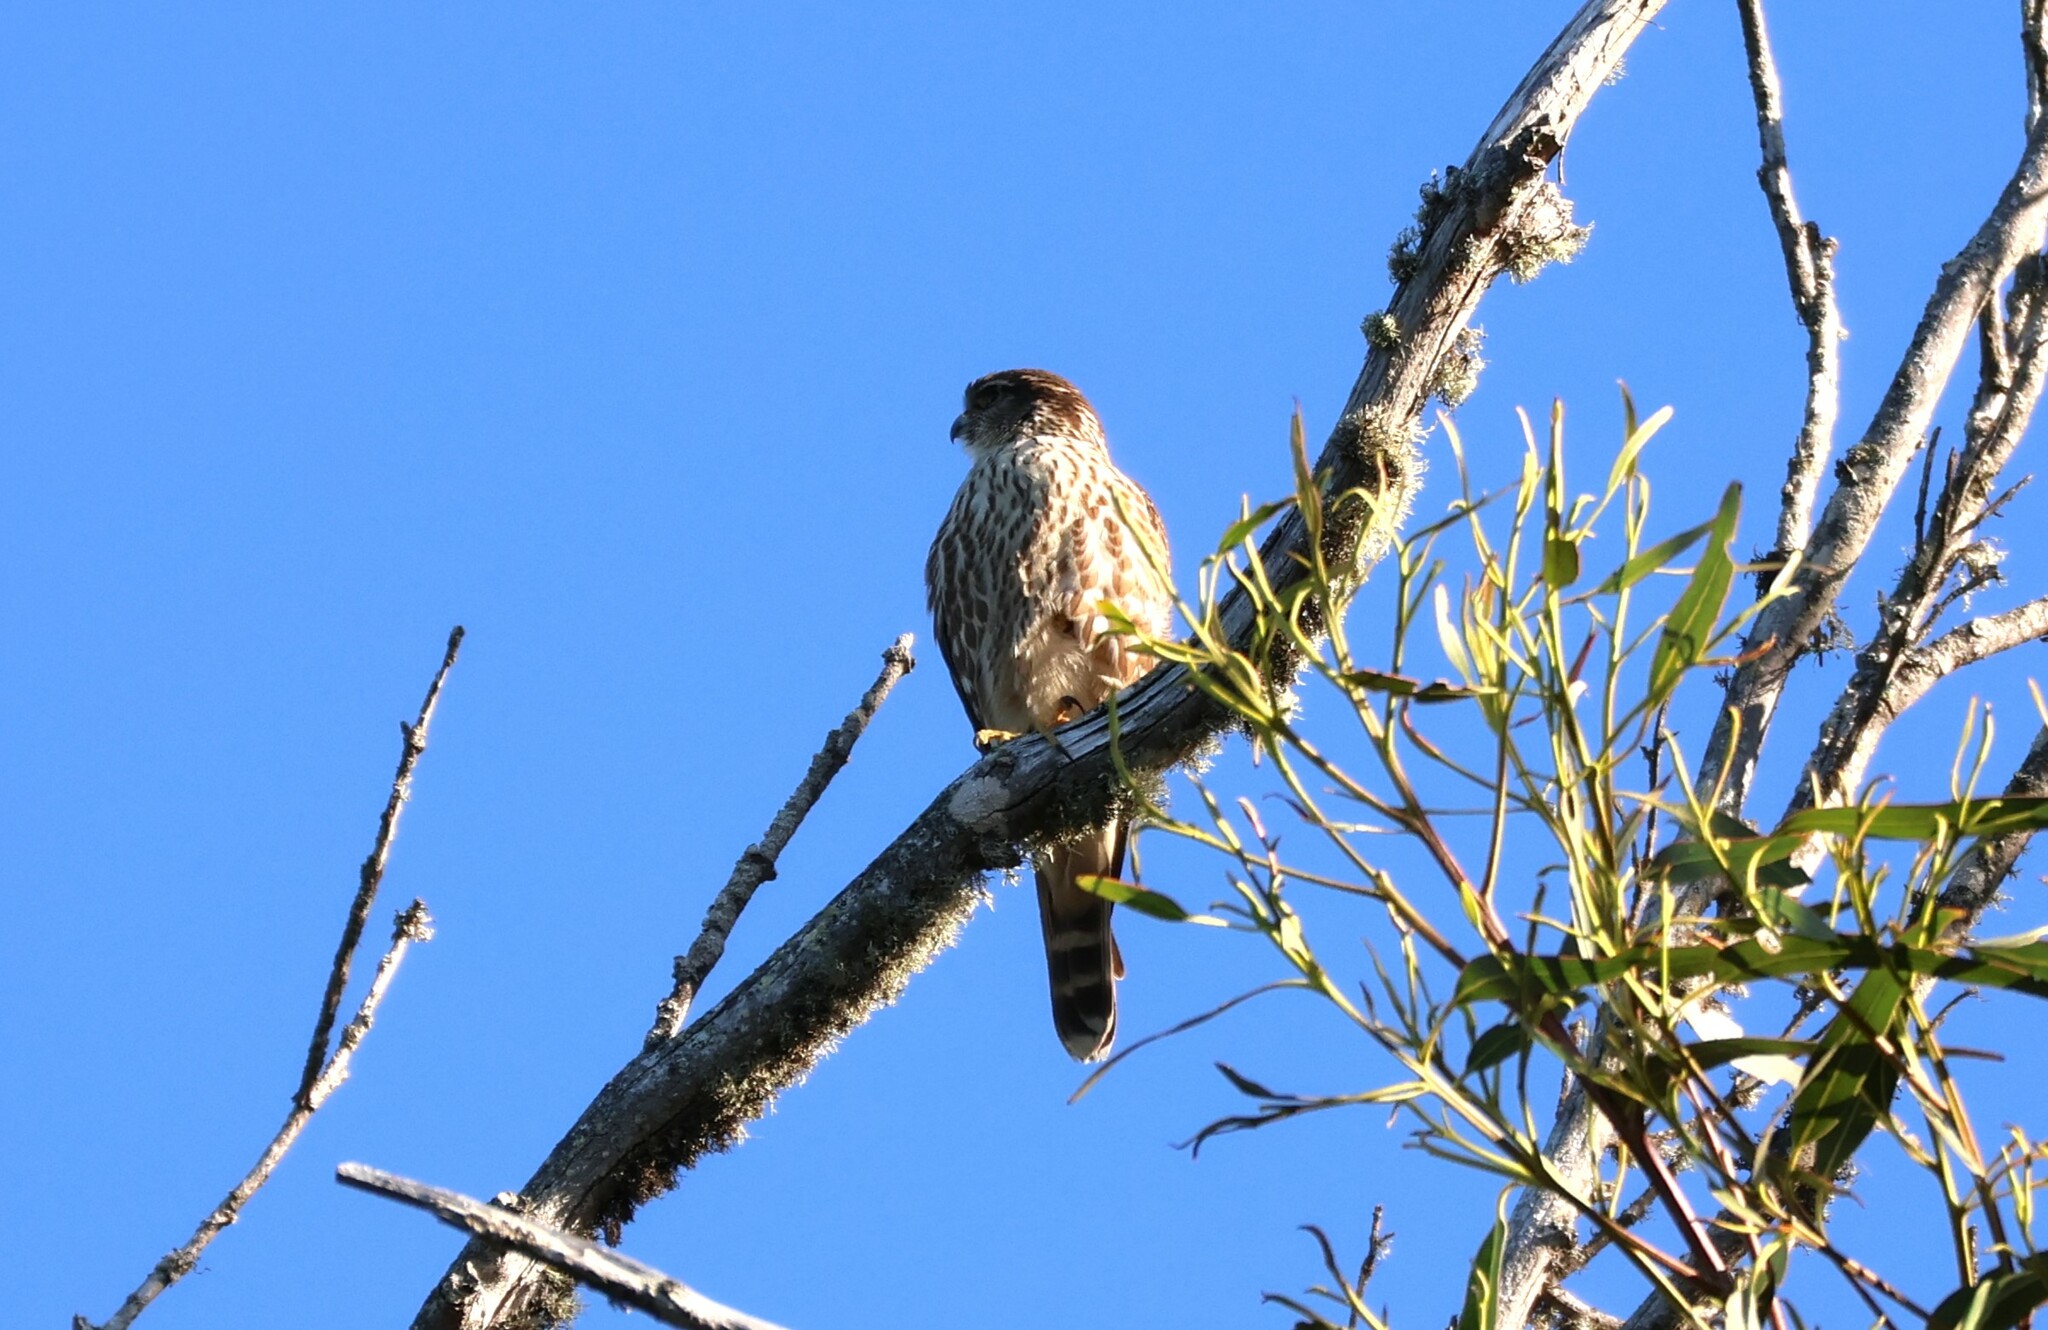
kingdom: Animalia
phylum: Chordata
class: Aves
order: Falconiformes
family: Falconidae
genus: Falco
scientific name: Falco columbarius
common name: Merlin
